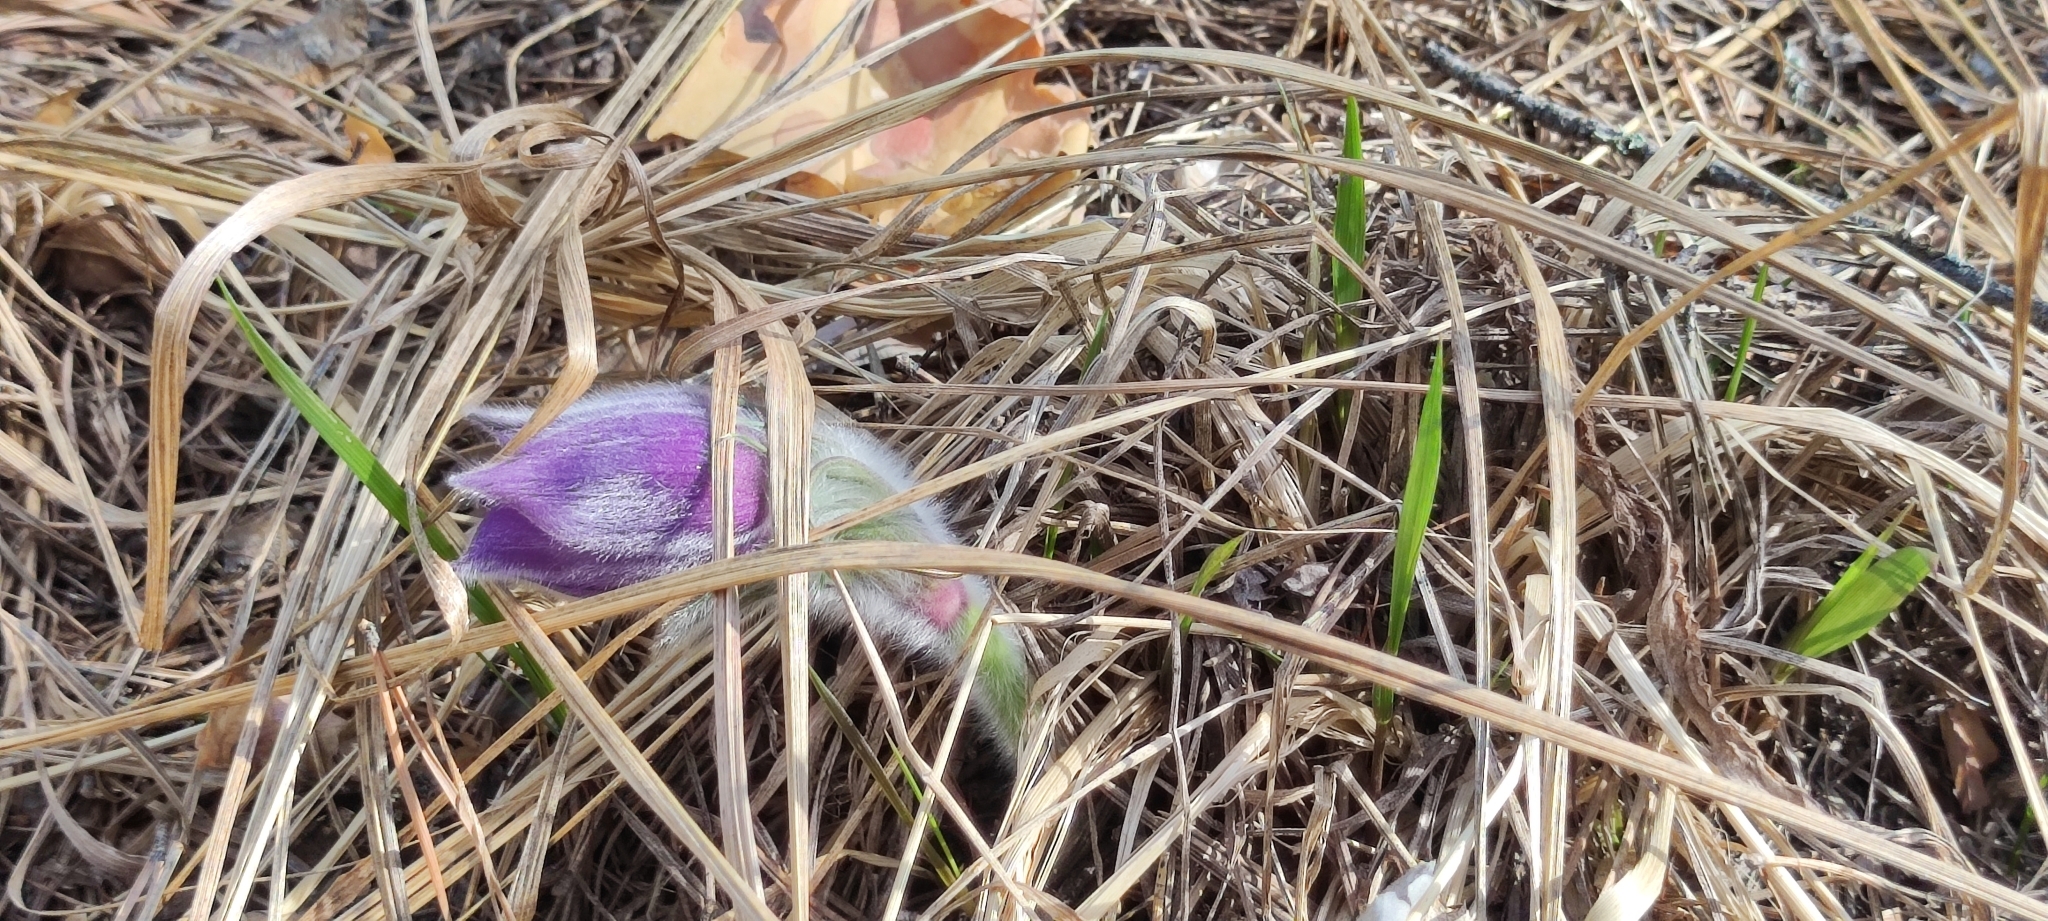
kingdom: Plantae
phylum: Tracheophyta
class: Magnoliopsida
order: Ranunculales
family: Ranunculaceae
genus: Pulsatilla
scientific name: Pulsatilla patens
